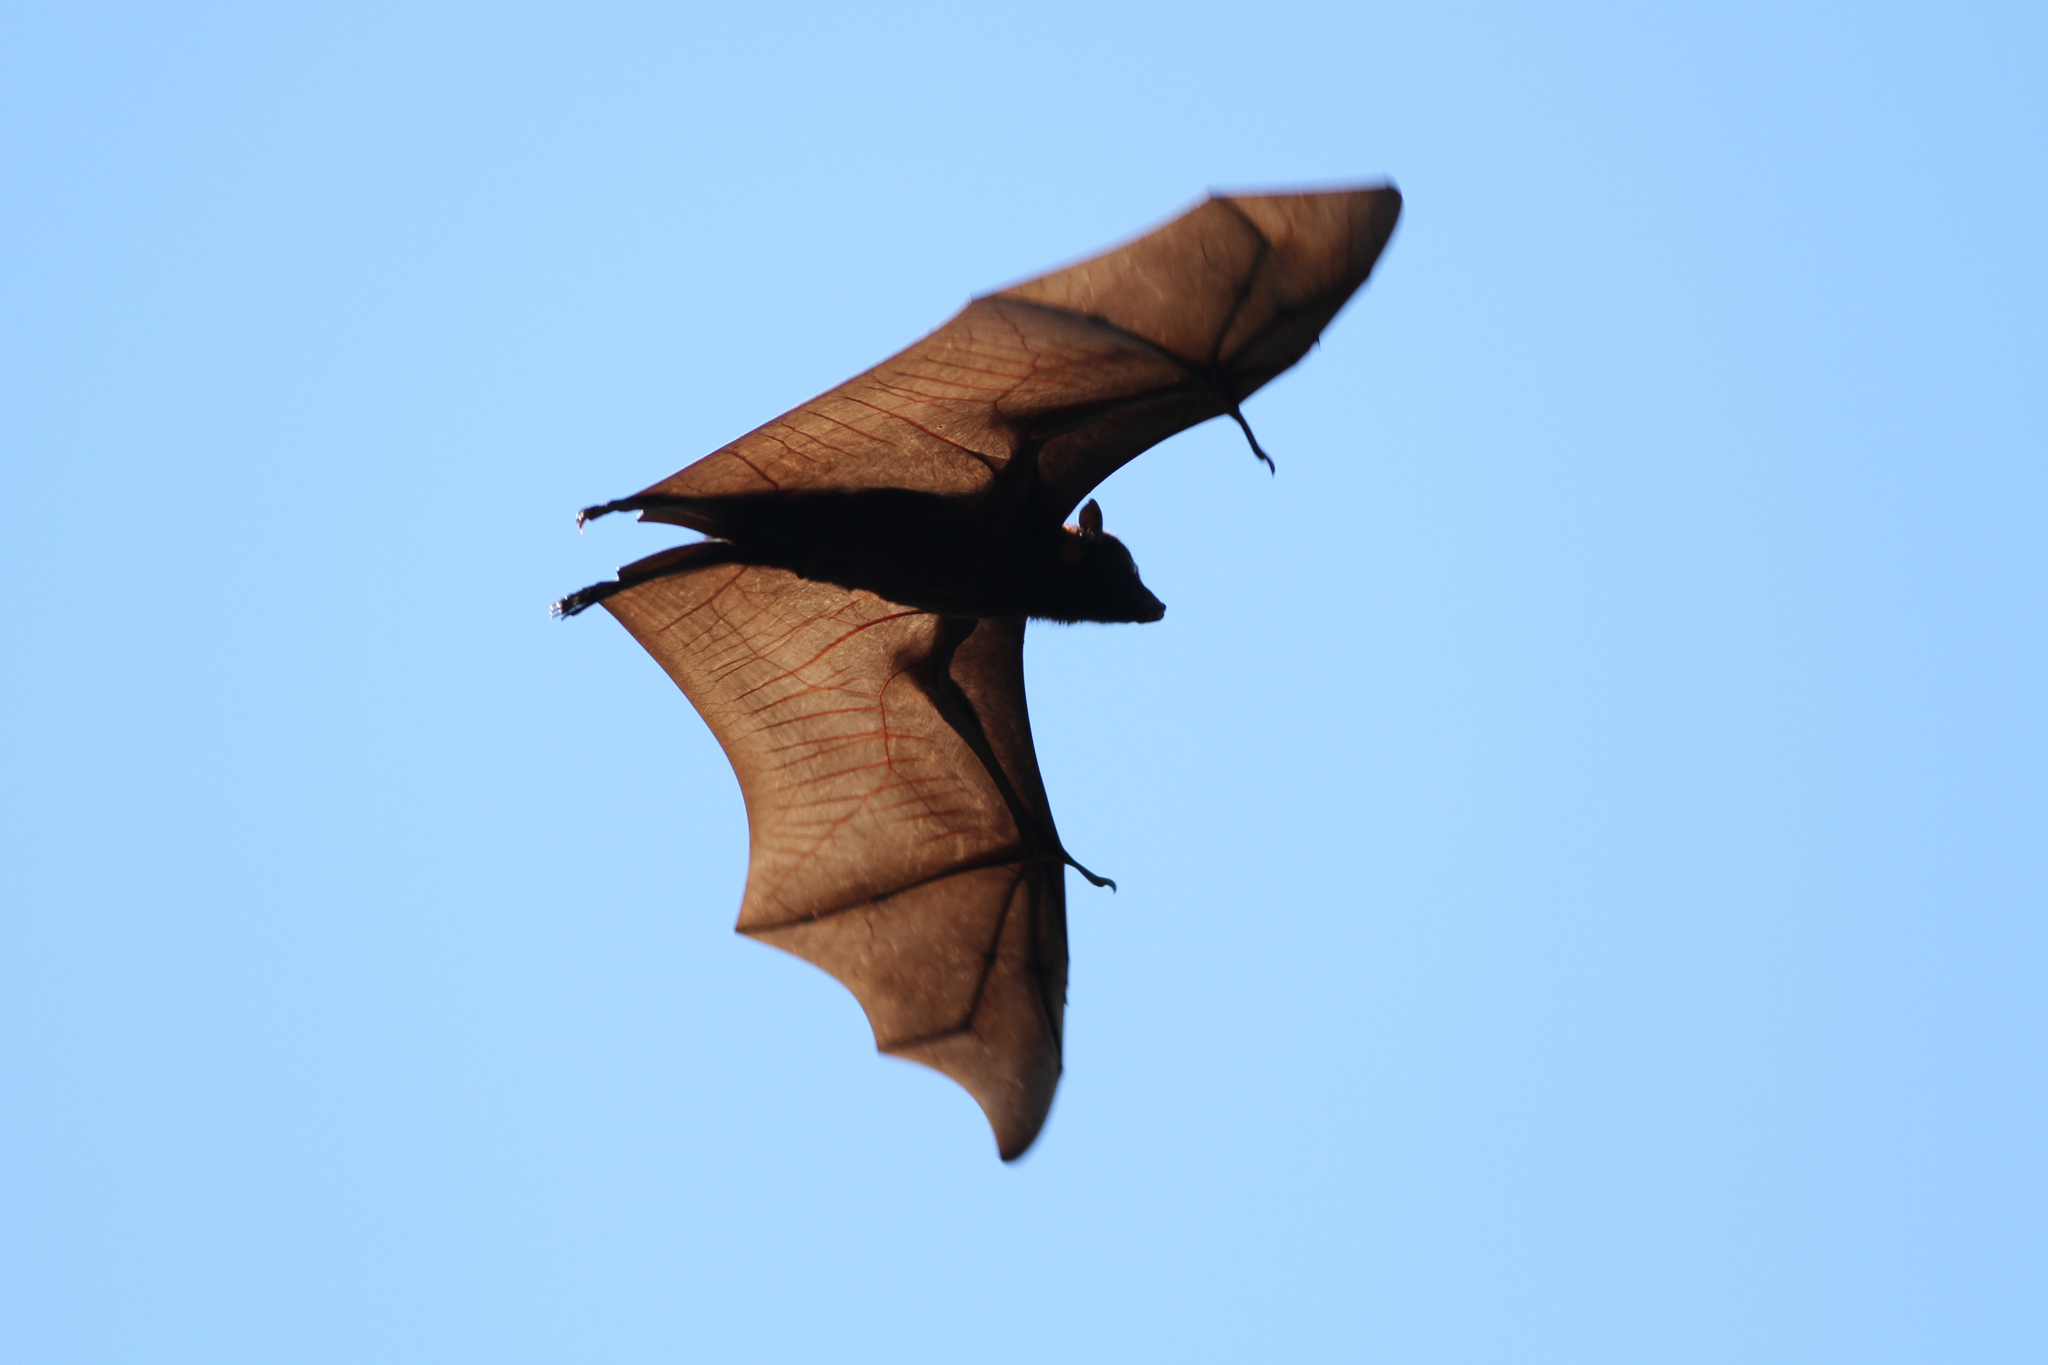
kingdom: Animalia
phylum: Chordata
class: Mammalia
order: Chiroptera
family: Pteropodidae
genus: Pteropus
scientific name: Pteropus alecto
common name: Black flying fox
